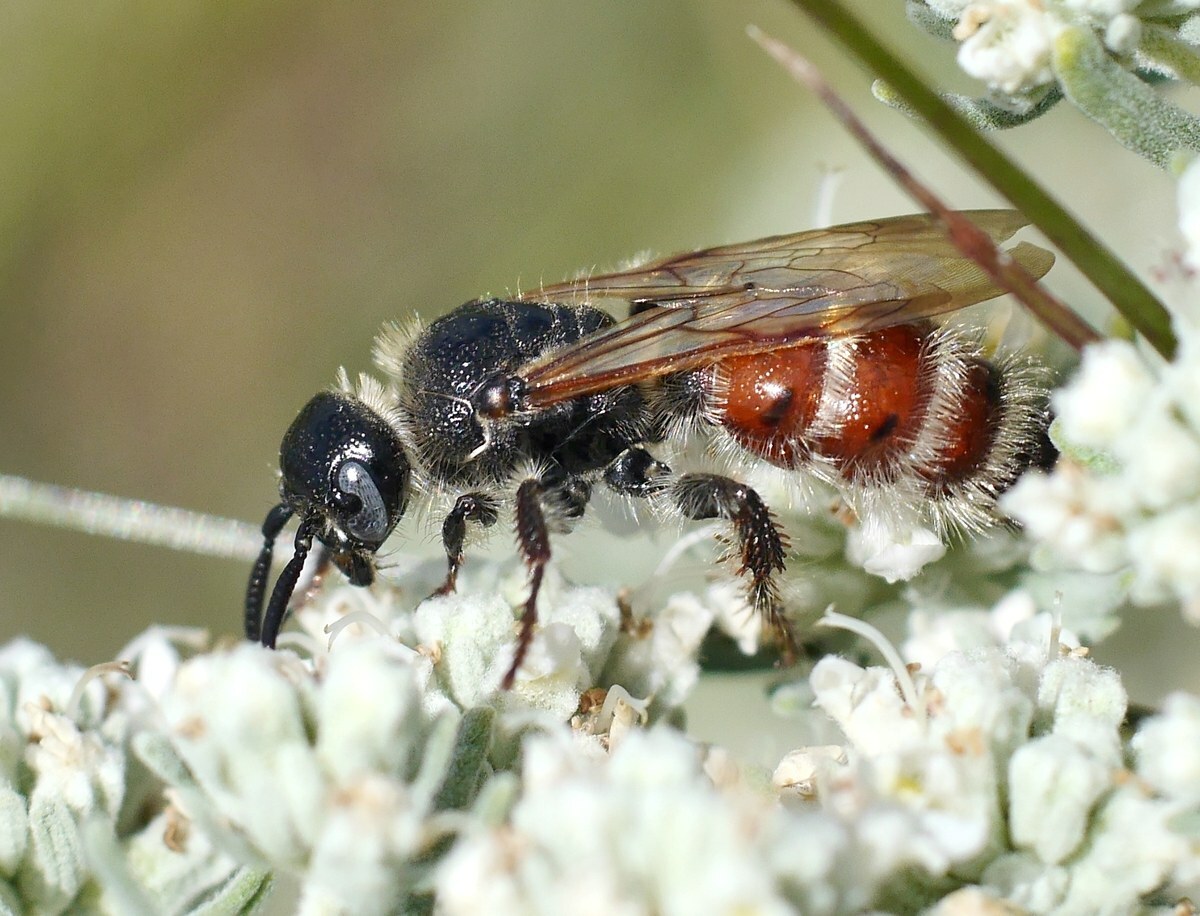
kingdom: Animalia
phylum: Arthropoda
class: Insecta
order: Hymenoptera
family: Scoliidae
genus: Colpa
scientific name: Colpa quinquecincta
